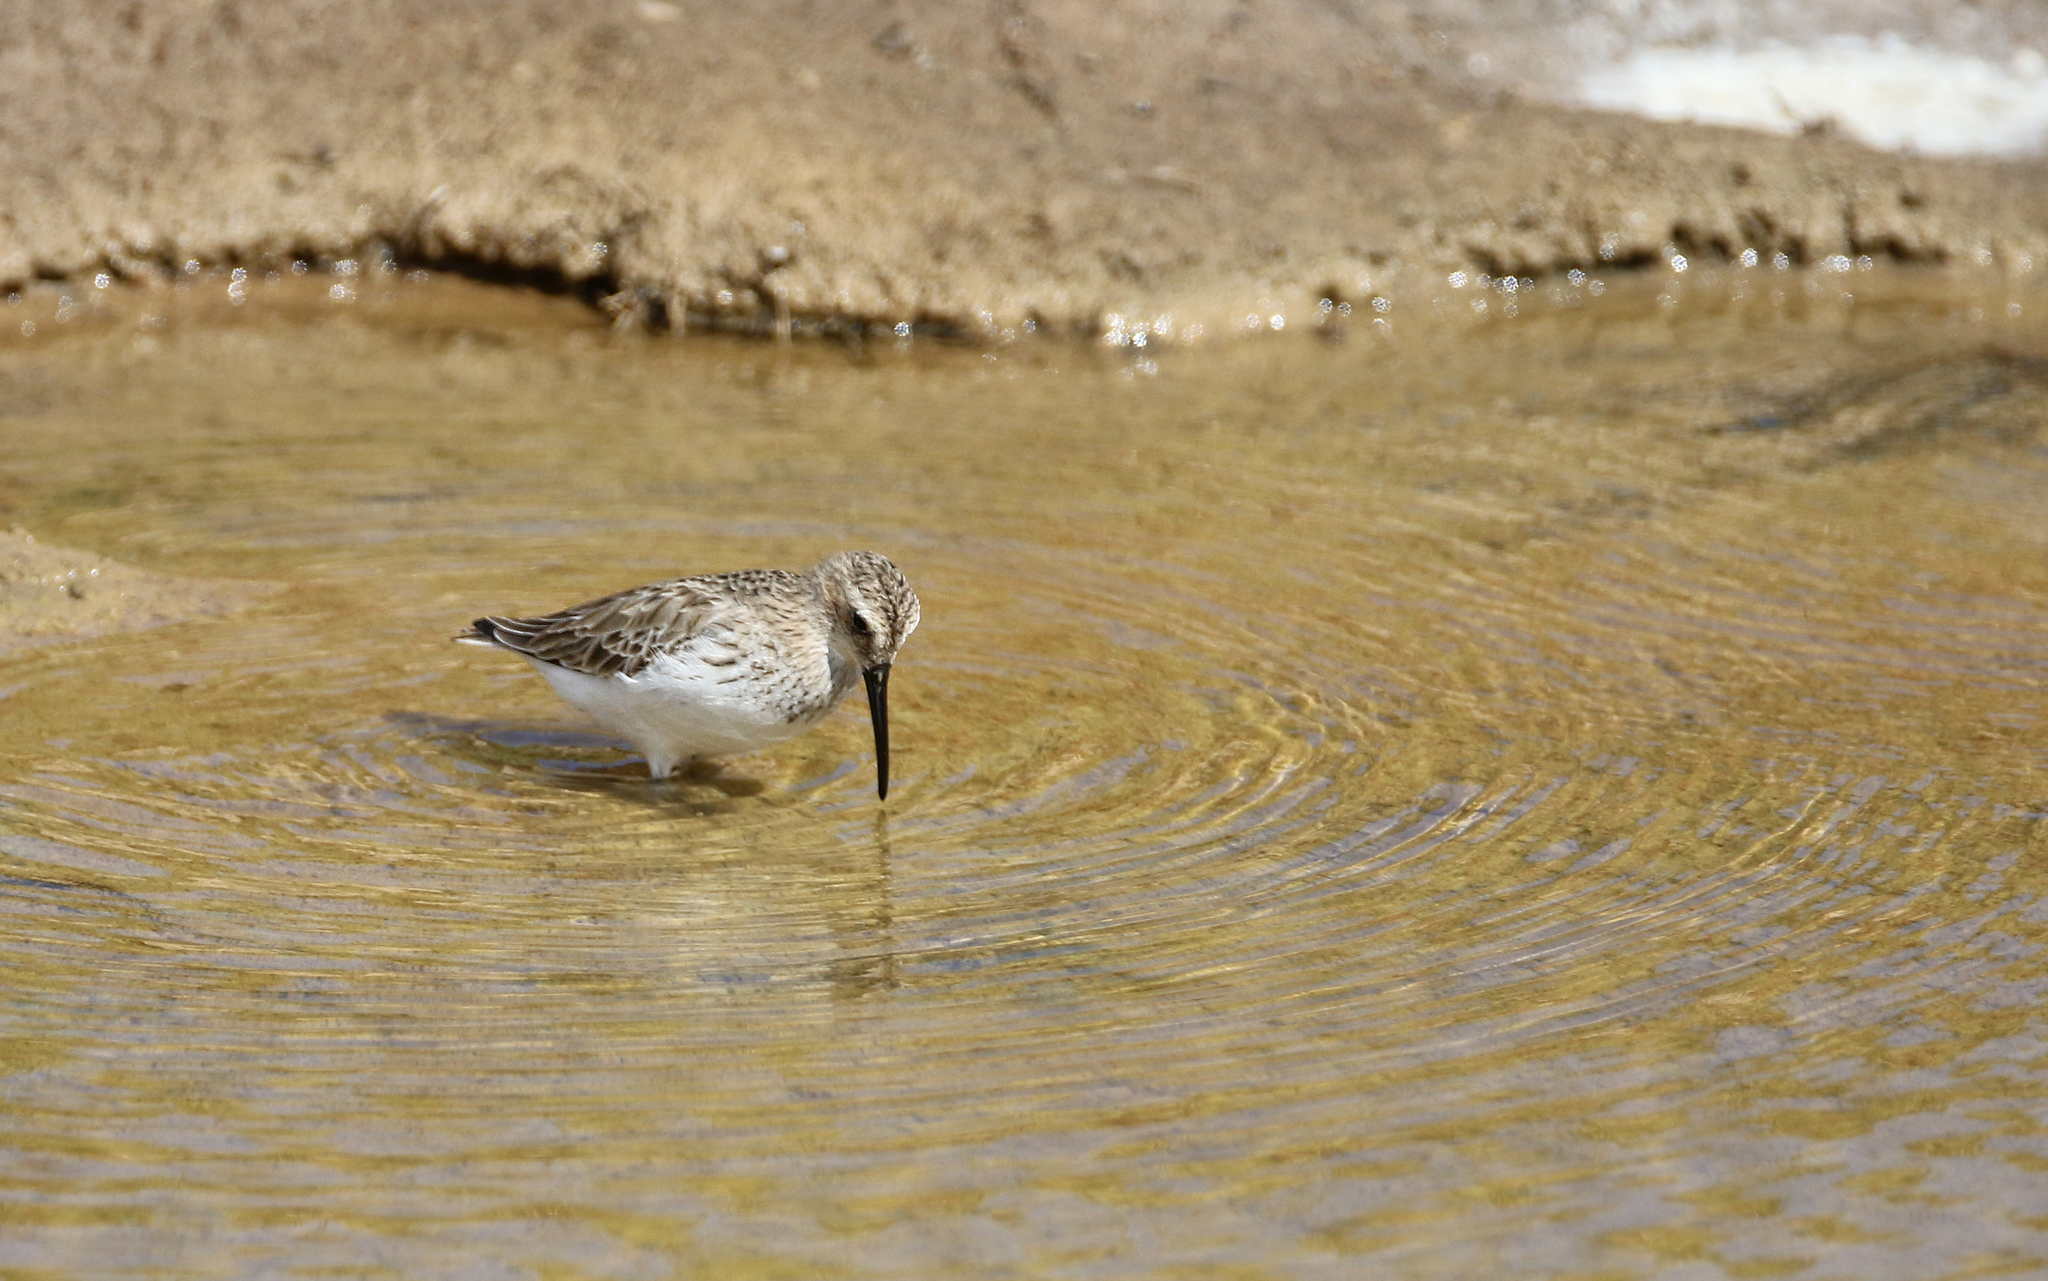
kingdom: Animalia
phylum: Chordata
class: Aves
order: Charadriiformes
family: Scolopacidae
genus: Calidris
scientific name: Calidris alpina
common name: Dunlin
